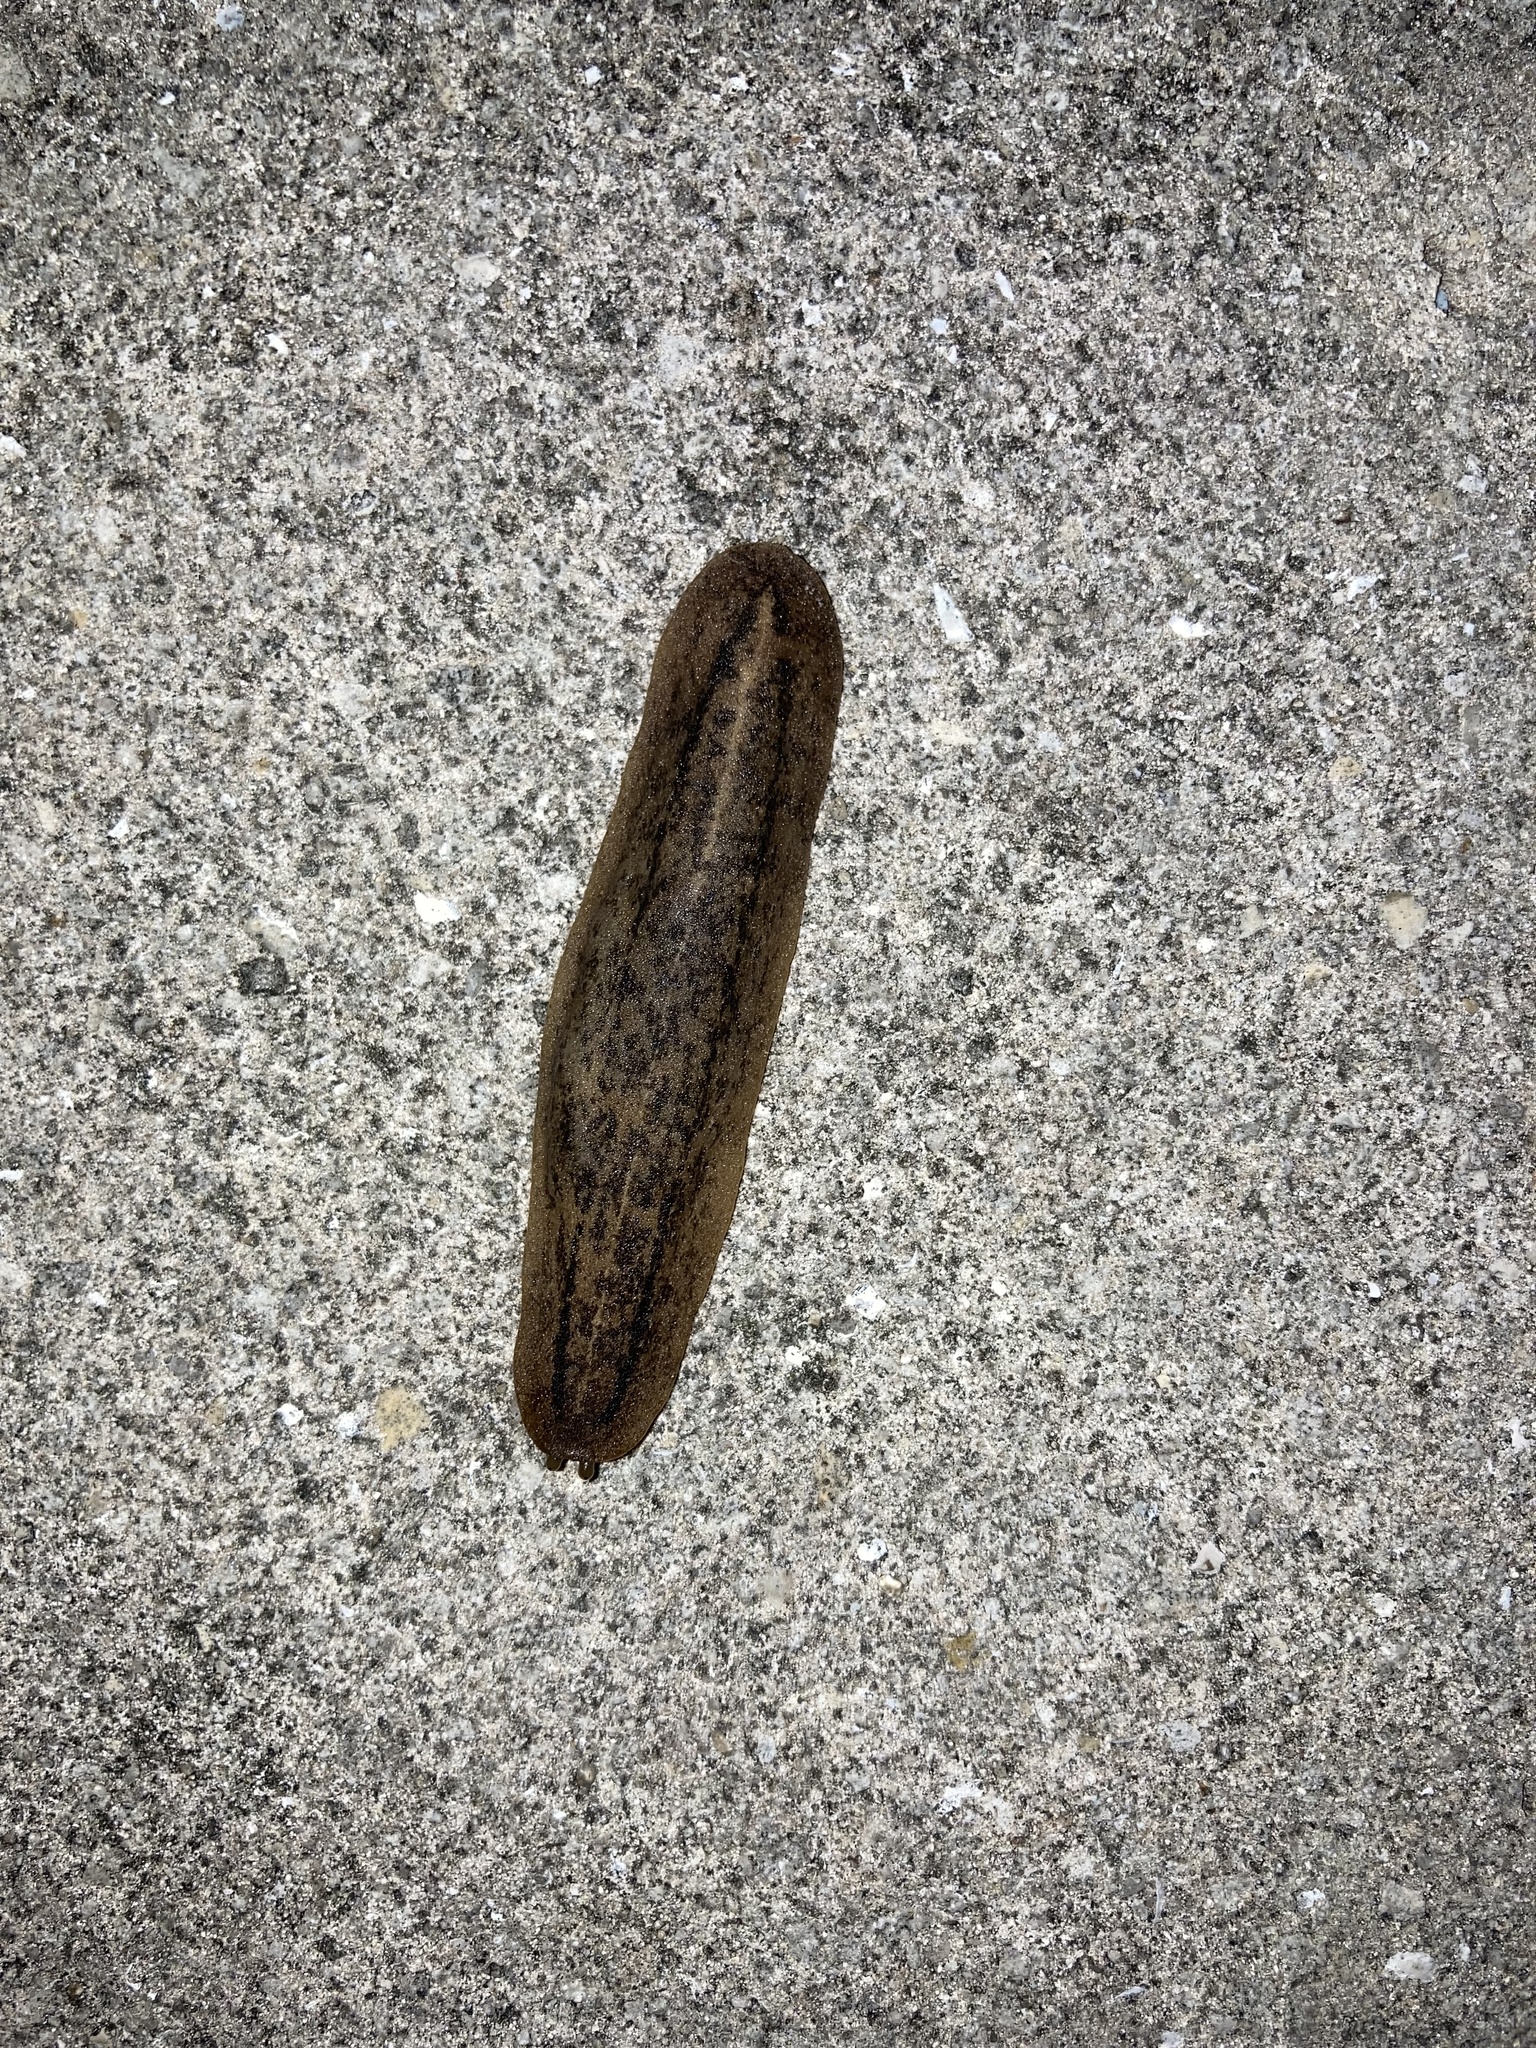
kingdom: Animalia
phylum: Mollusca
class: Gastropoda
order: Systellommatophora
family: Veronicellidae
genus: Leidyula
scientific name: Leidyula floridana
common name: Florida leatherleaf
